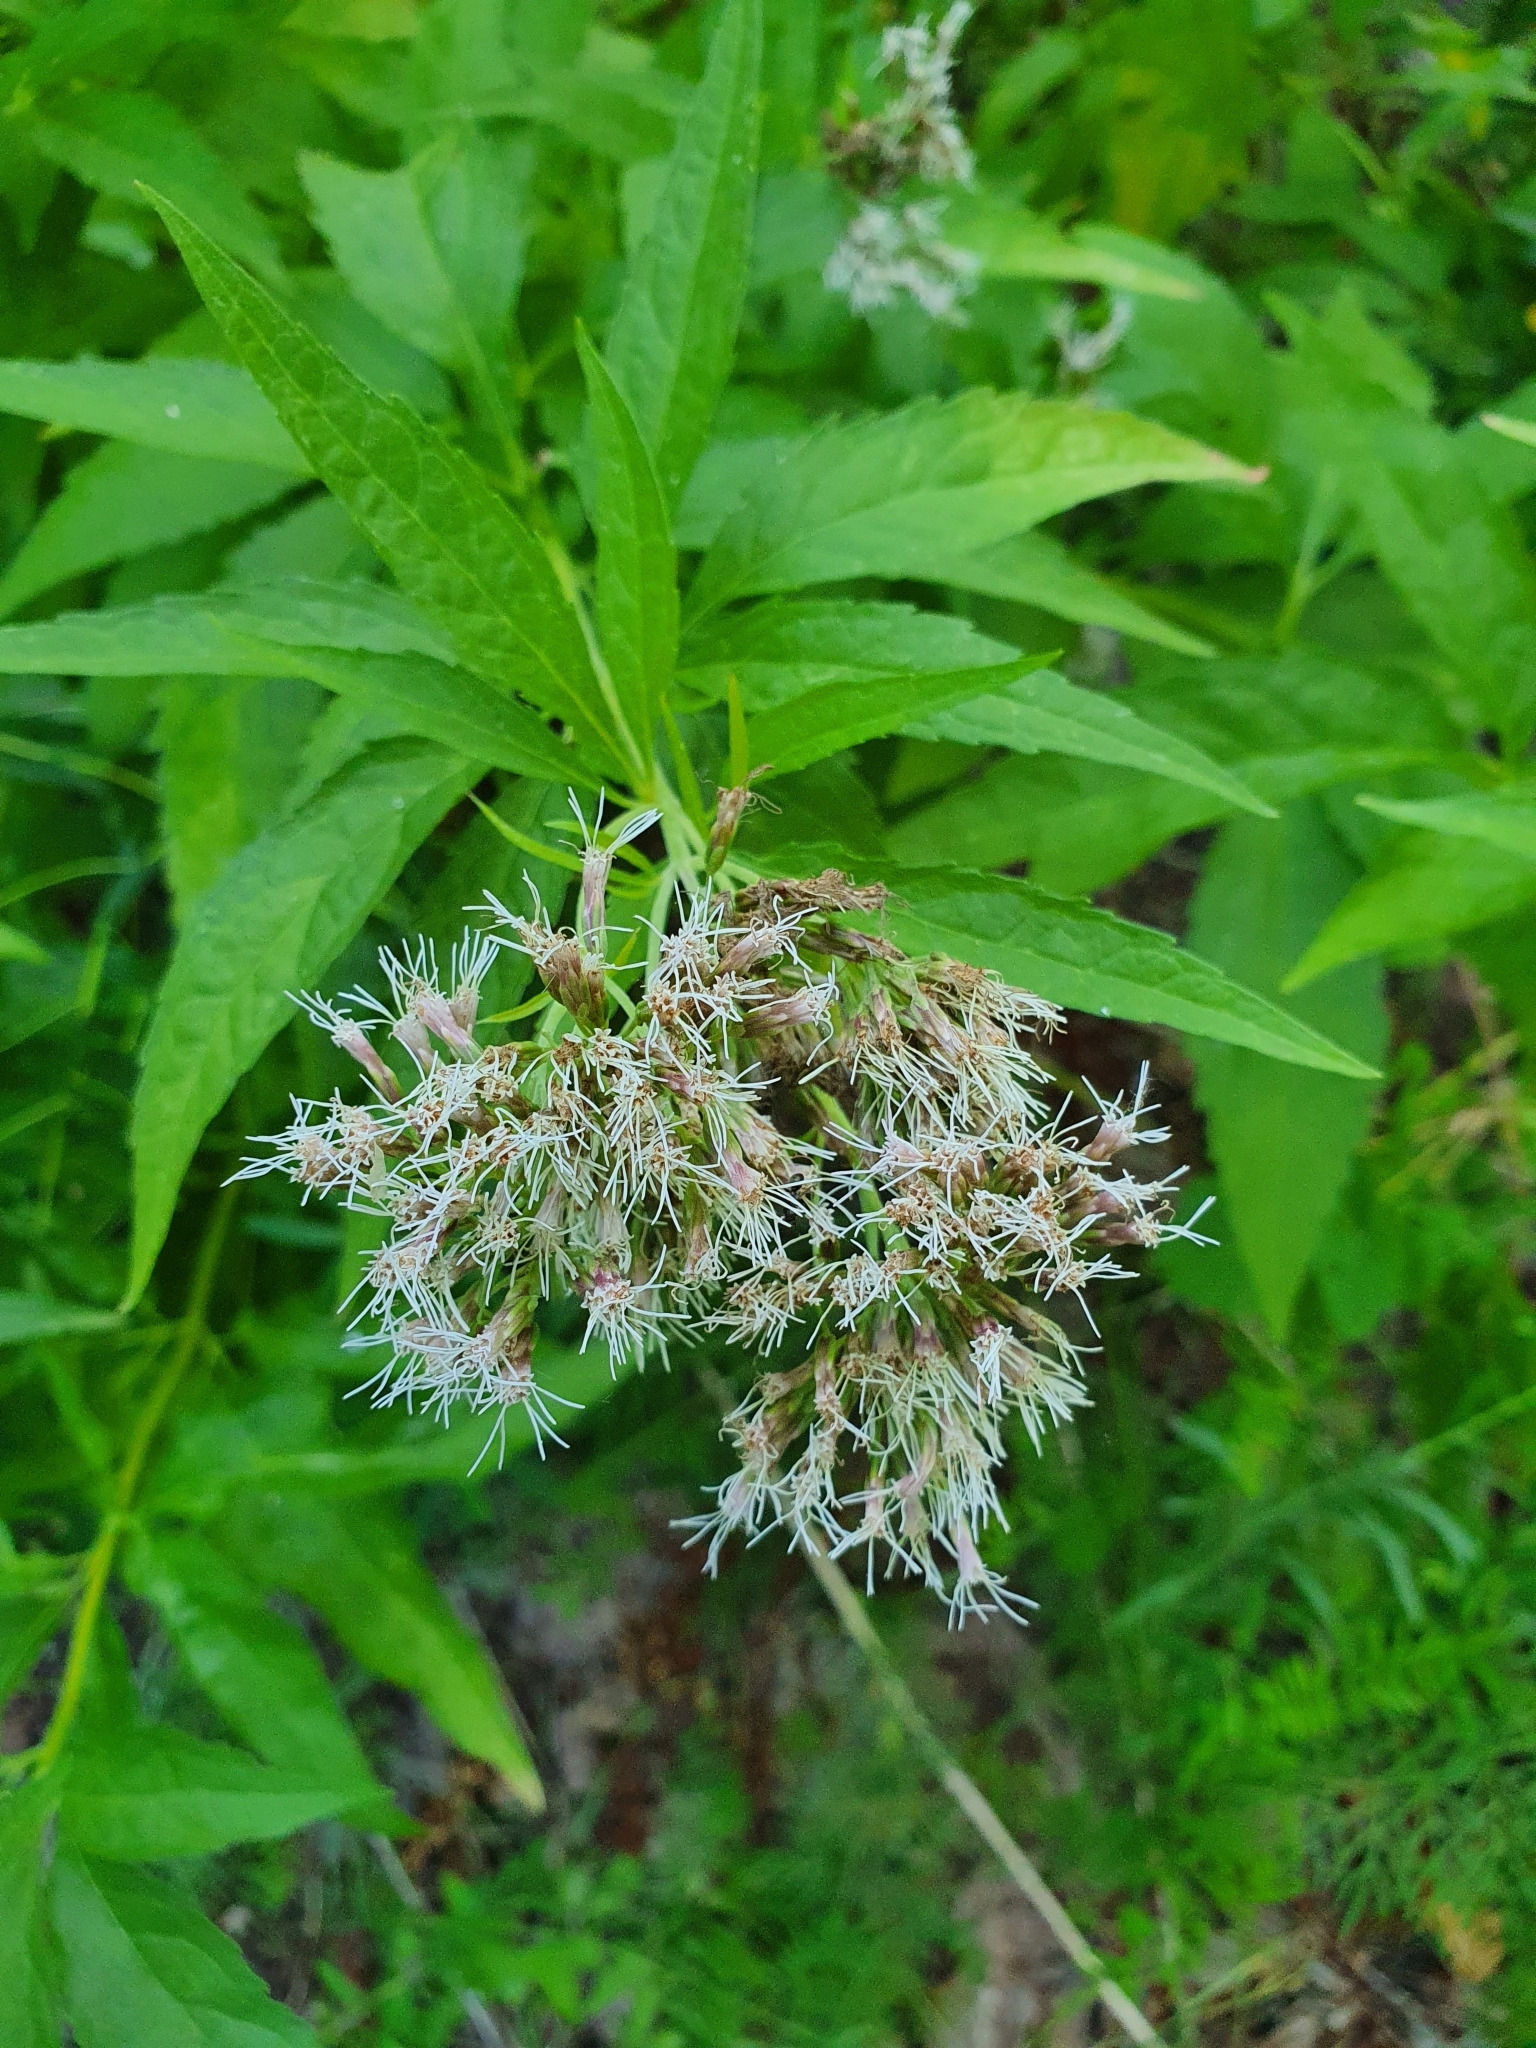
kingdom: Plantae
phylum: Tracheophyta
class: Magnoliopsida
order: Asterales
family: Asteraceae
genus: Eupatorium
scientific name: Eupatorium cannabinum
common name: Hemp-agrimony
